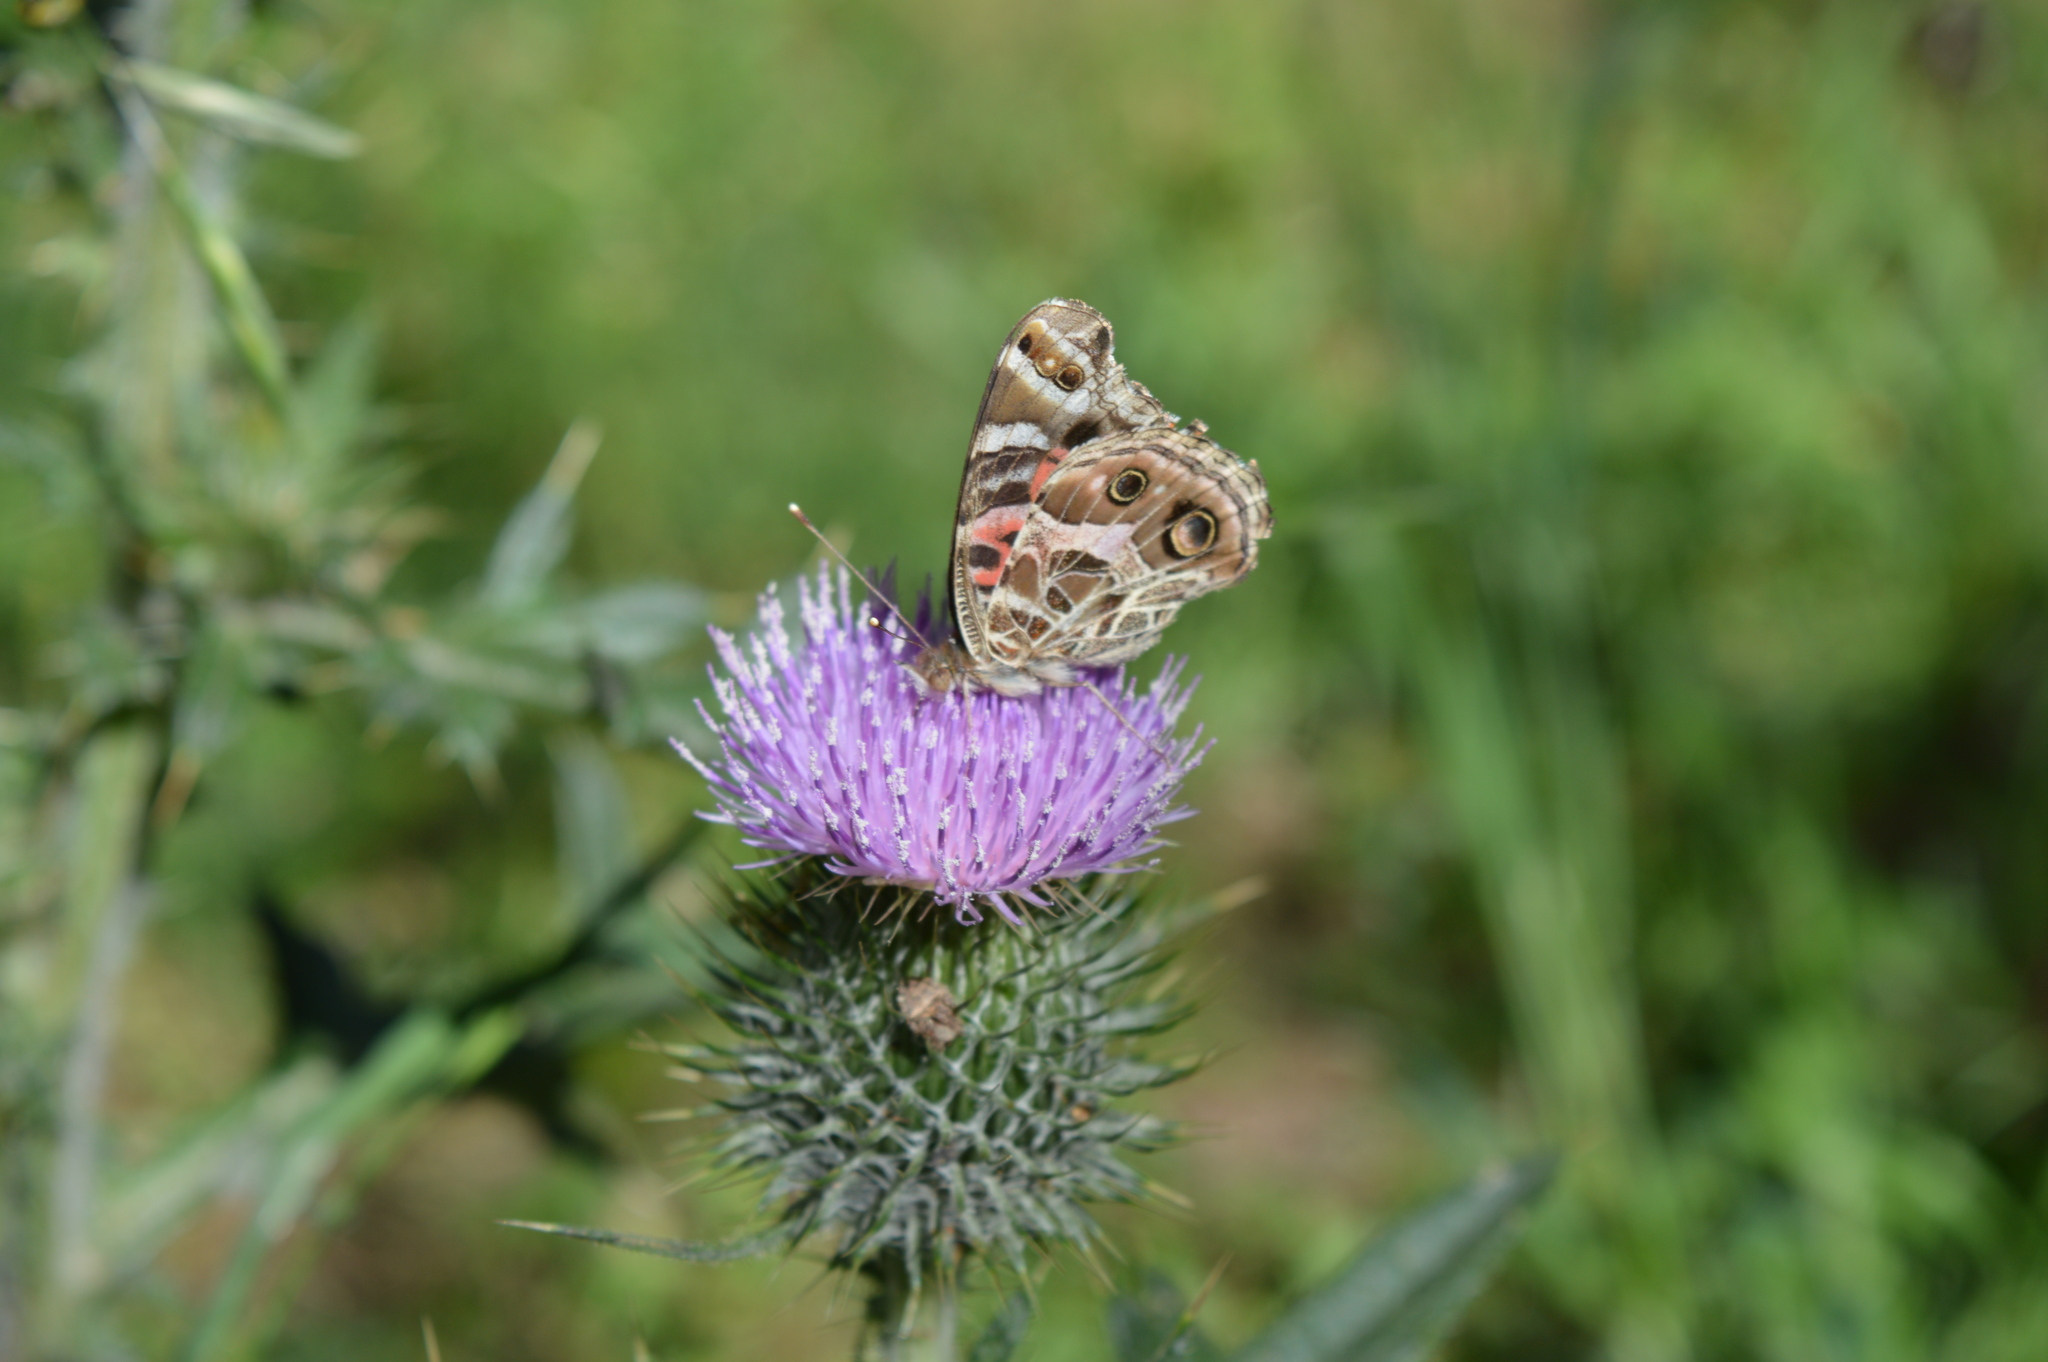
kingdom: Animalia
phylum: Arthropoda
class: Insecta
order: Lepidoptera
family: Nymphalidae
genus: Vanessa
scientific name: Vanessa braziliensis
